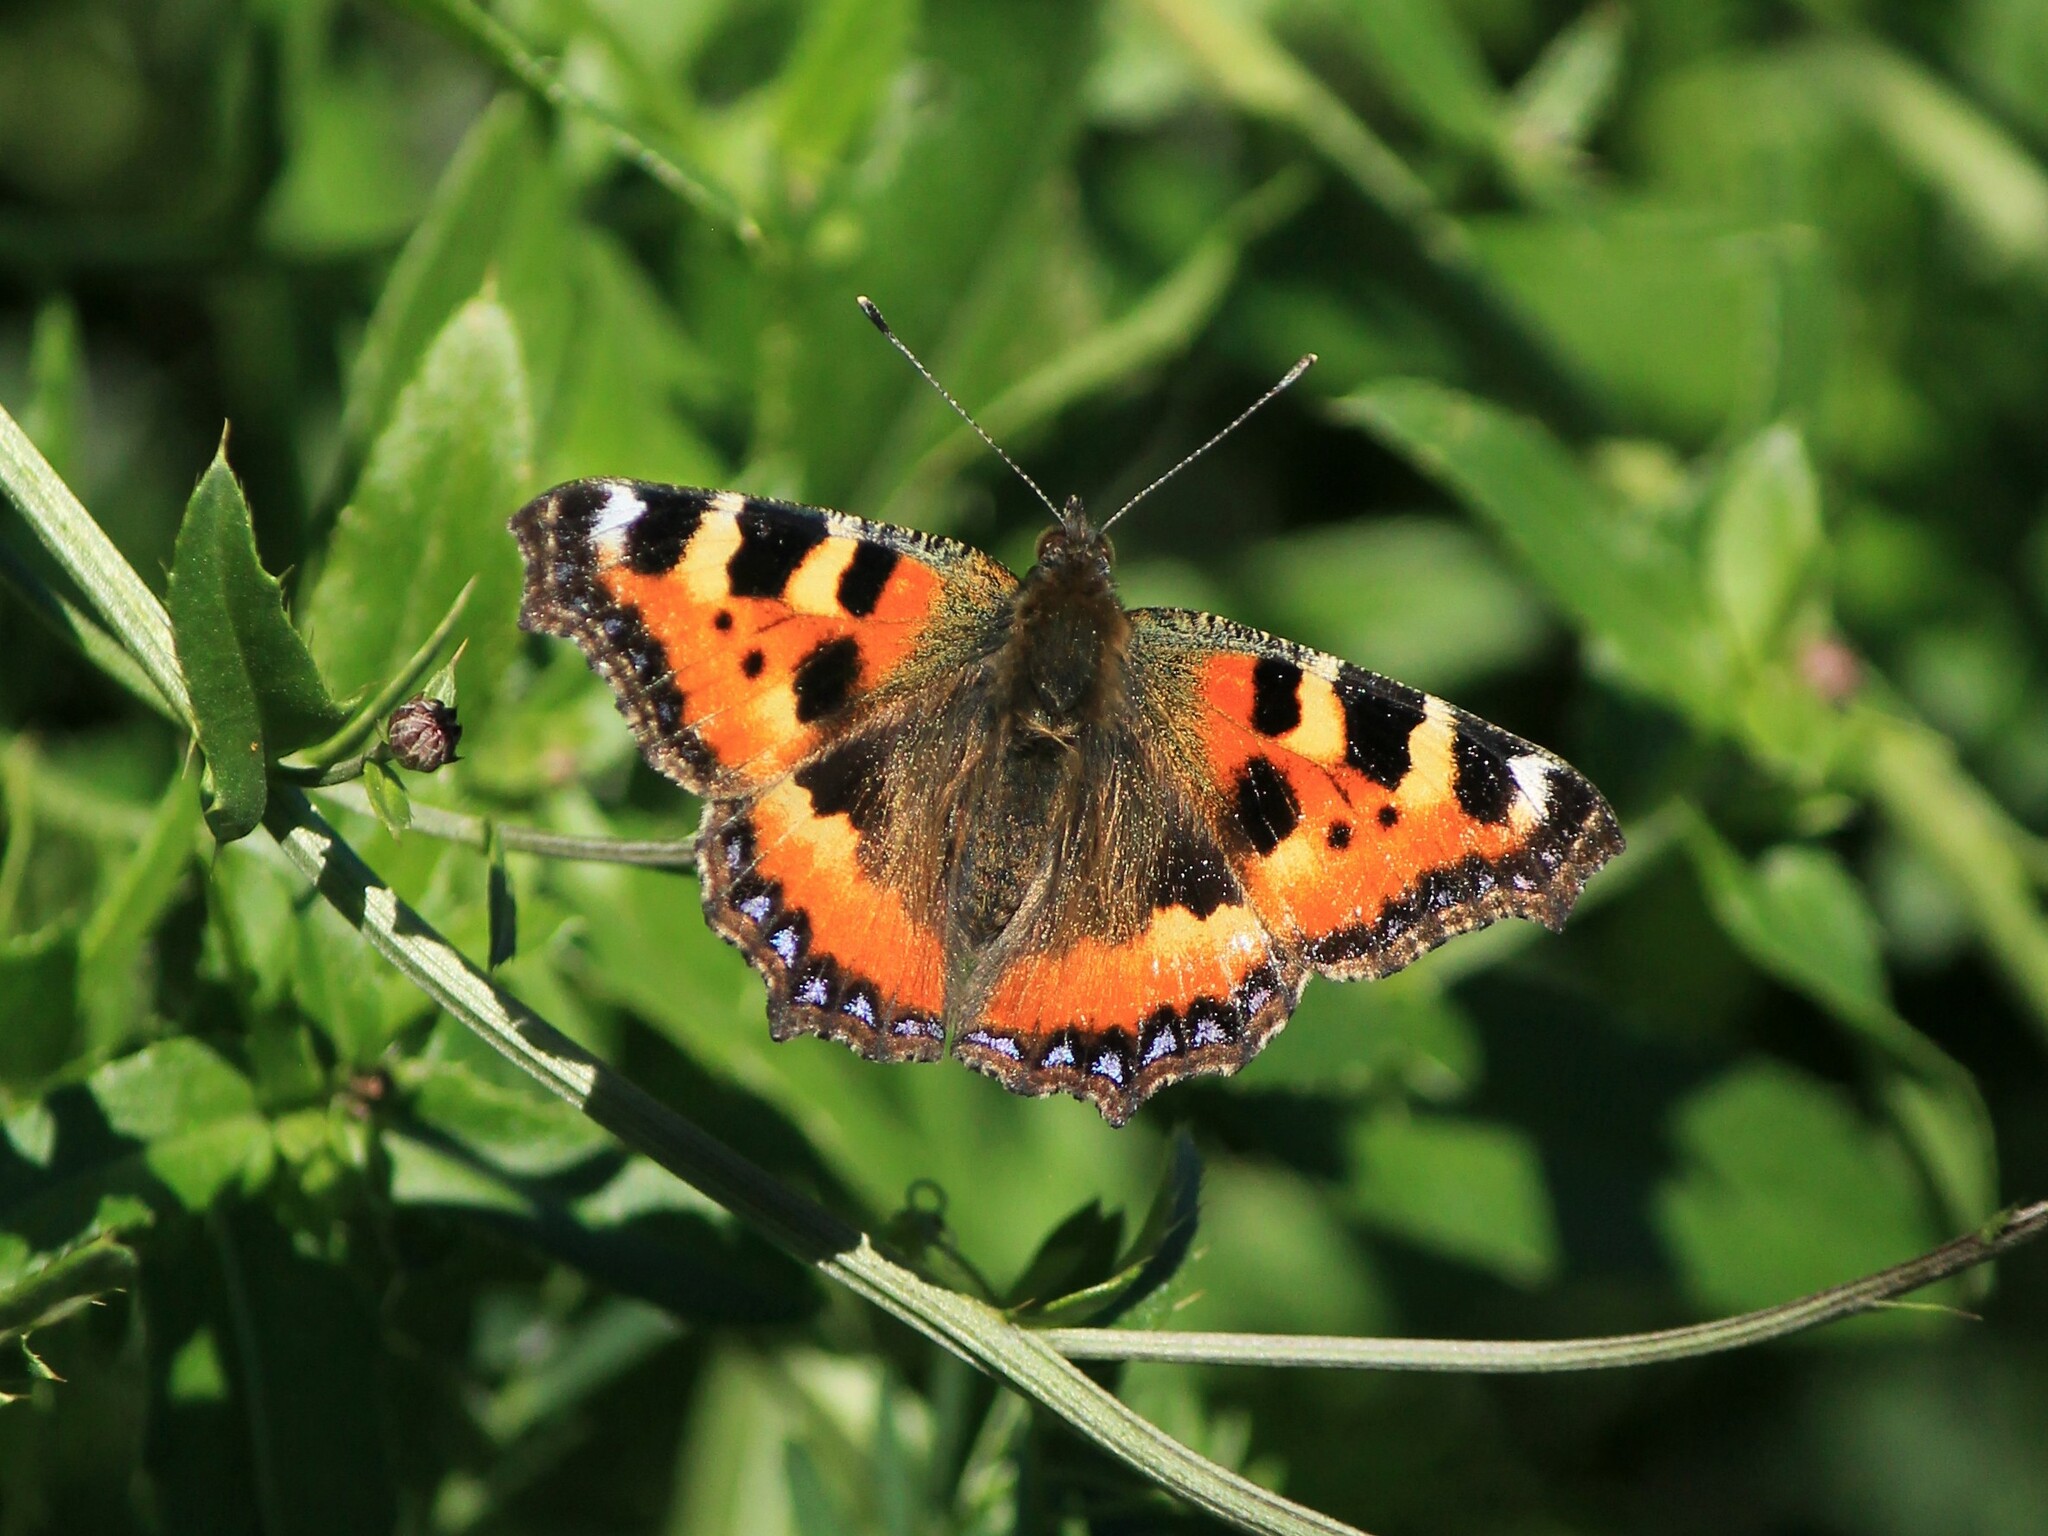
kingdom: Animalia
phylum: Arthropoda
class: Insecta
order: Lepidoptera
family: Nymphalidae
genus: Aglais
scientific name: Aglais urticae
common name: Small tortoiseshell
